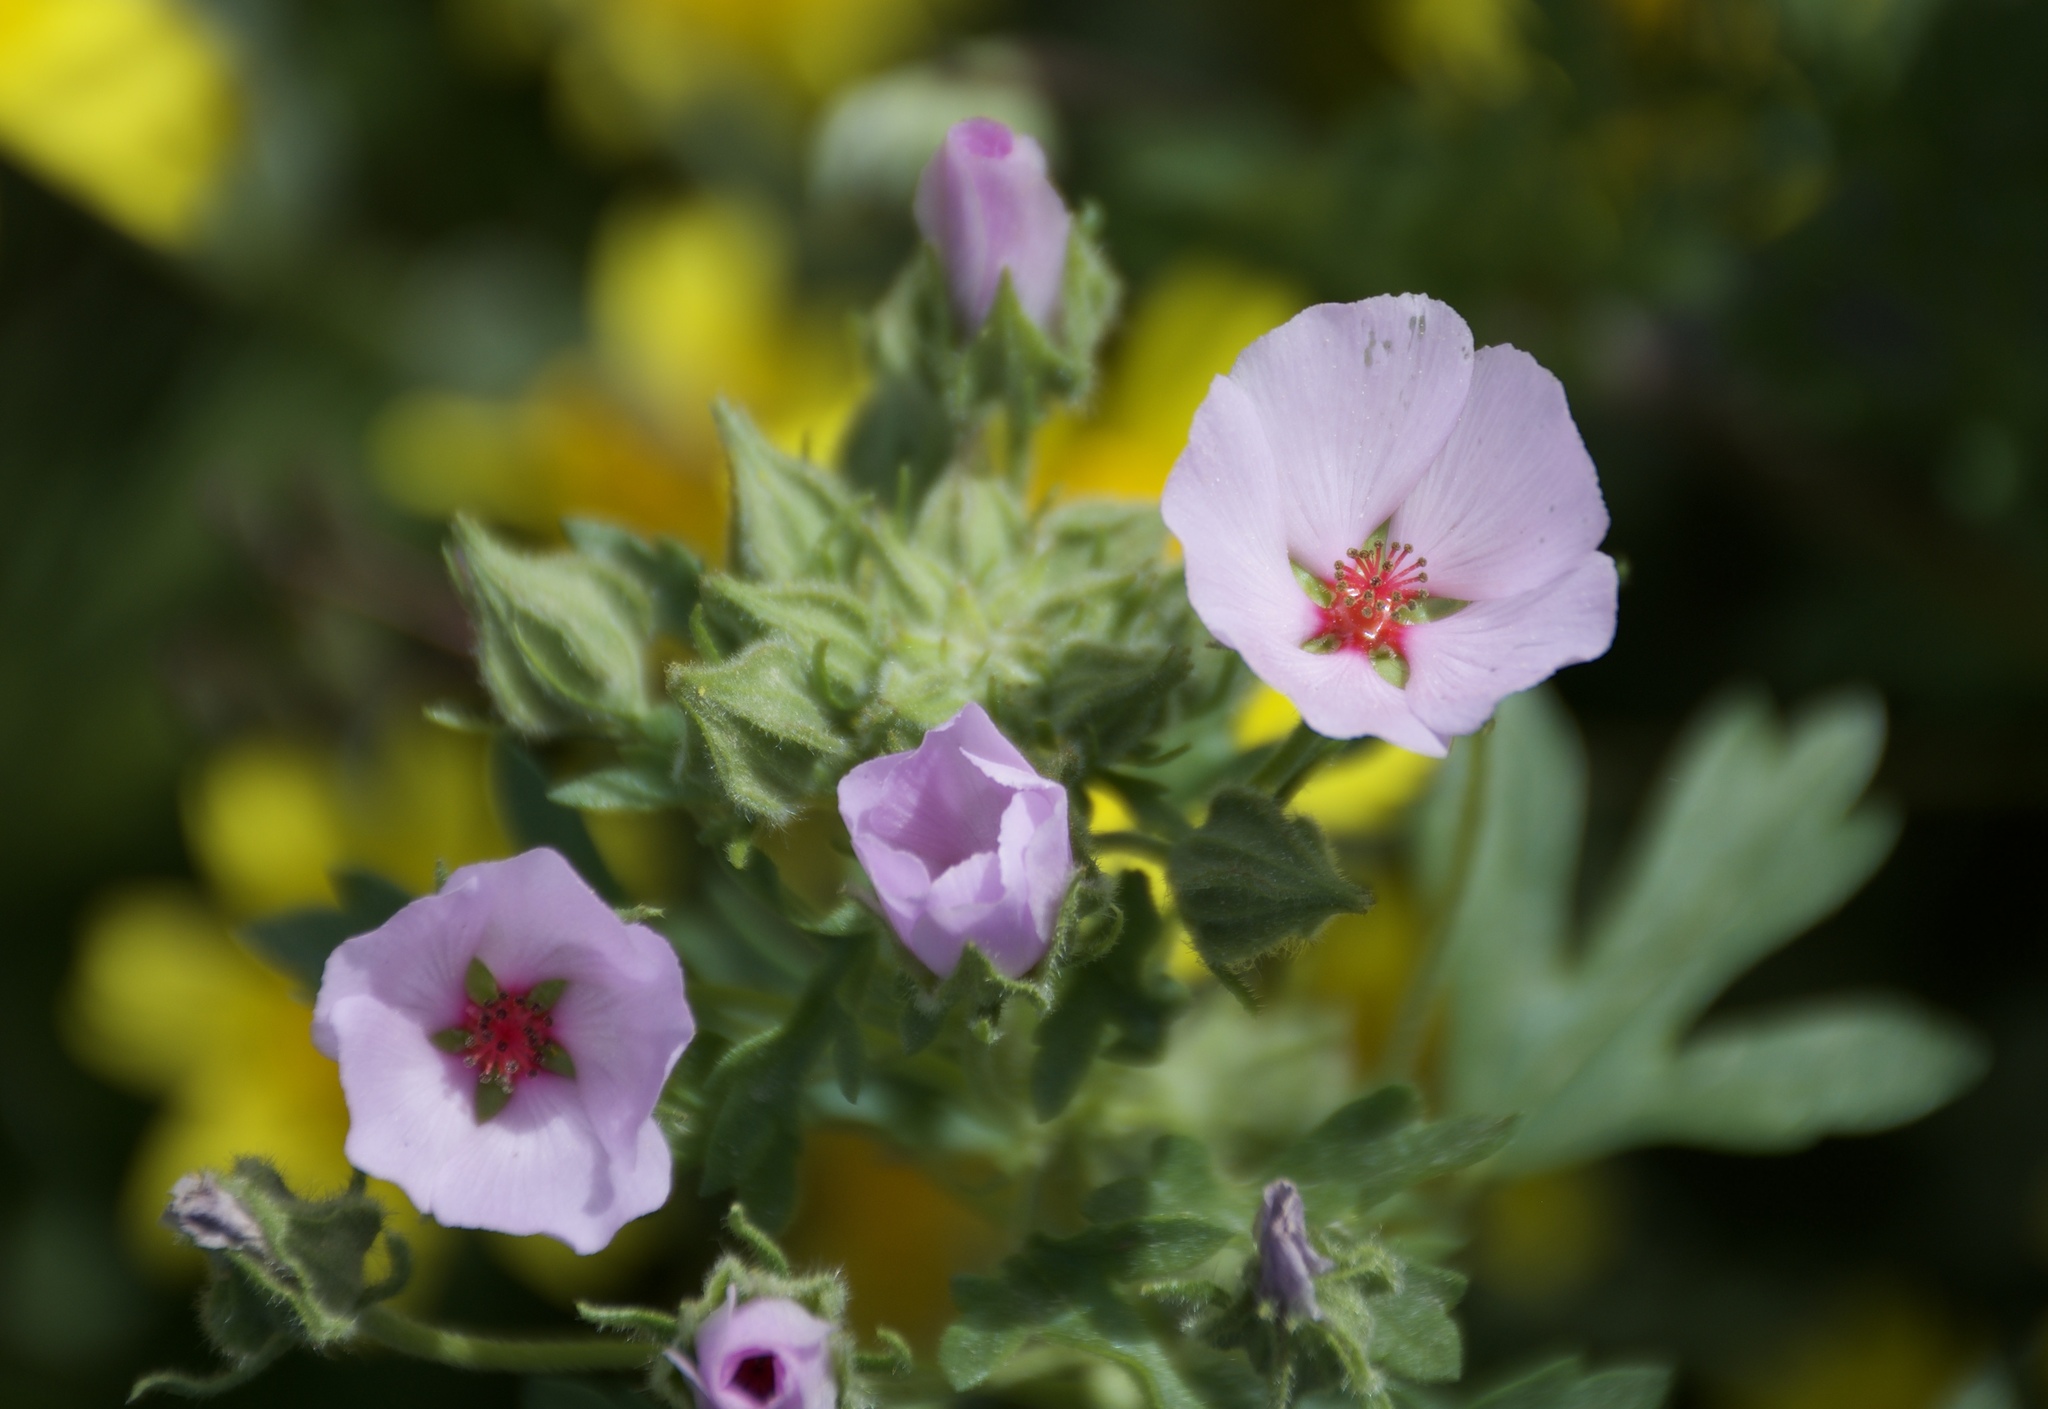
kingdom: Plantae
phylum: Tracheophyta
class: Magnoliopsida
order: Malvales
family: Malvaceae
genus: Eremalche
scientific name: Eremalche parryi
